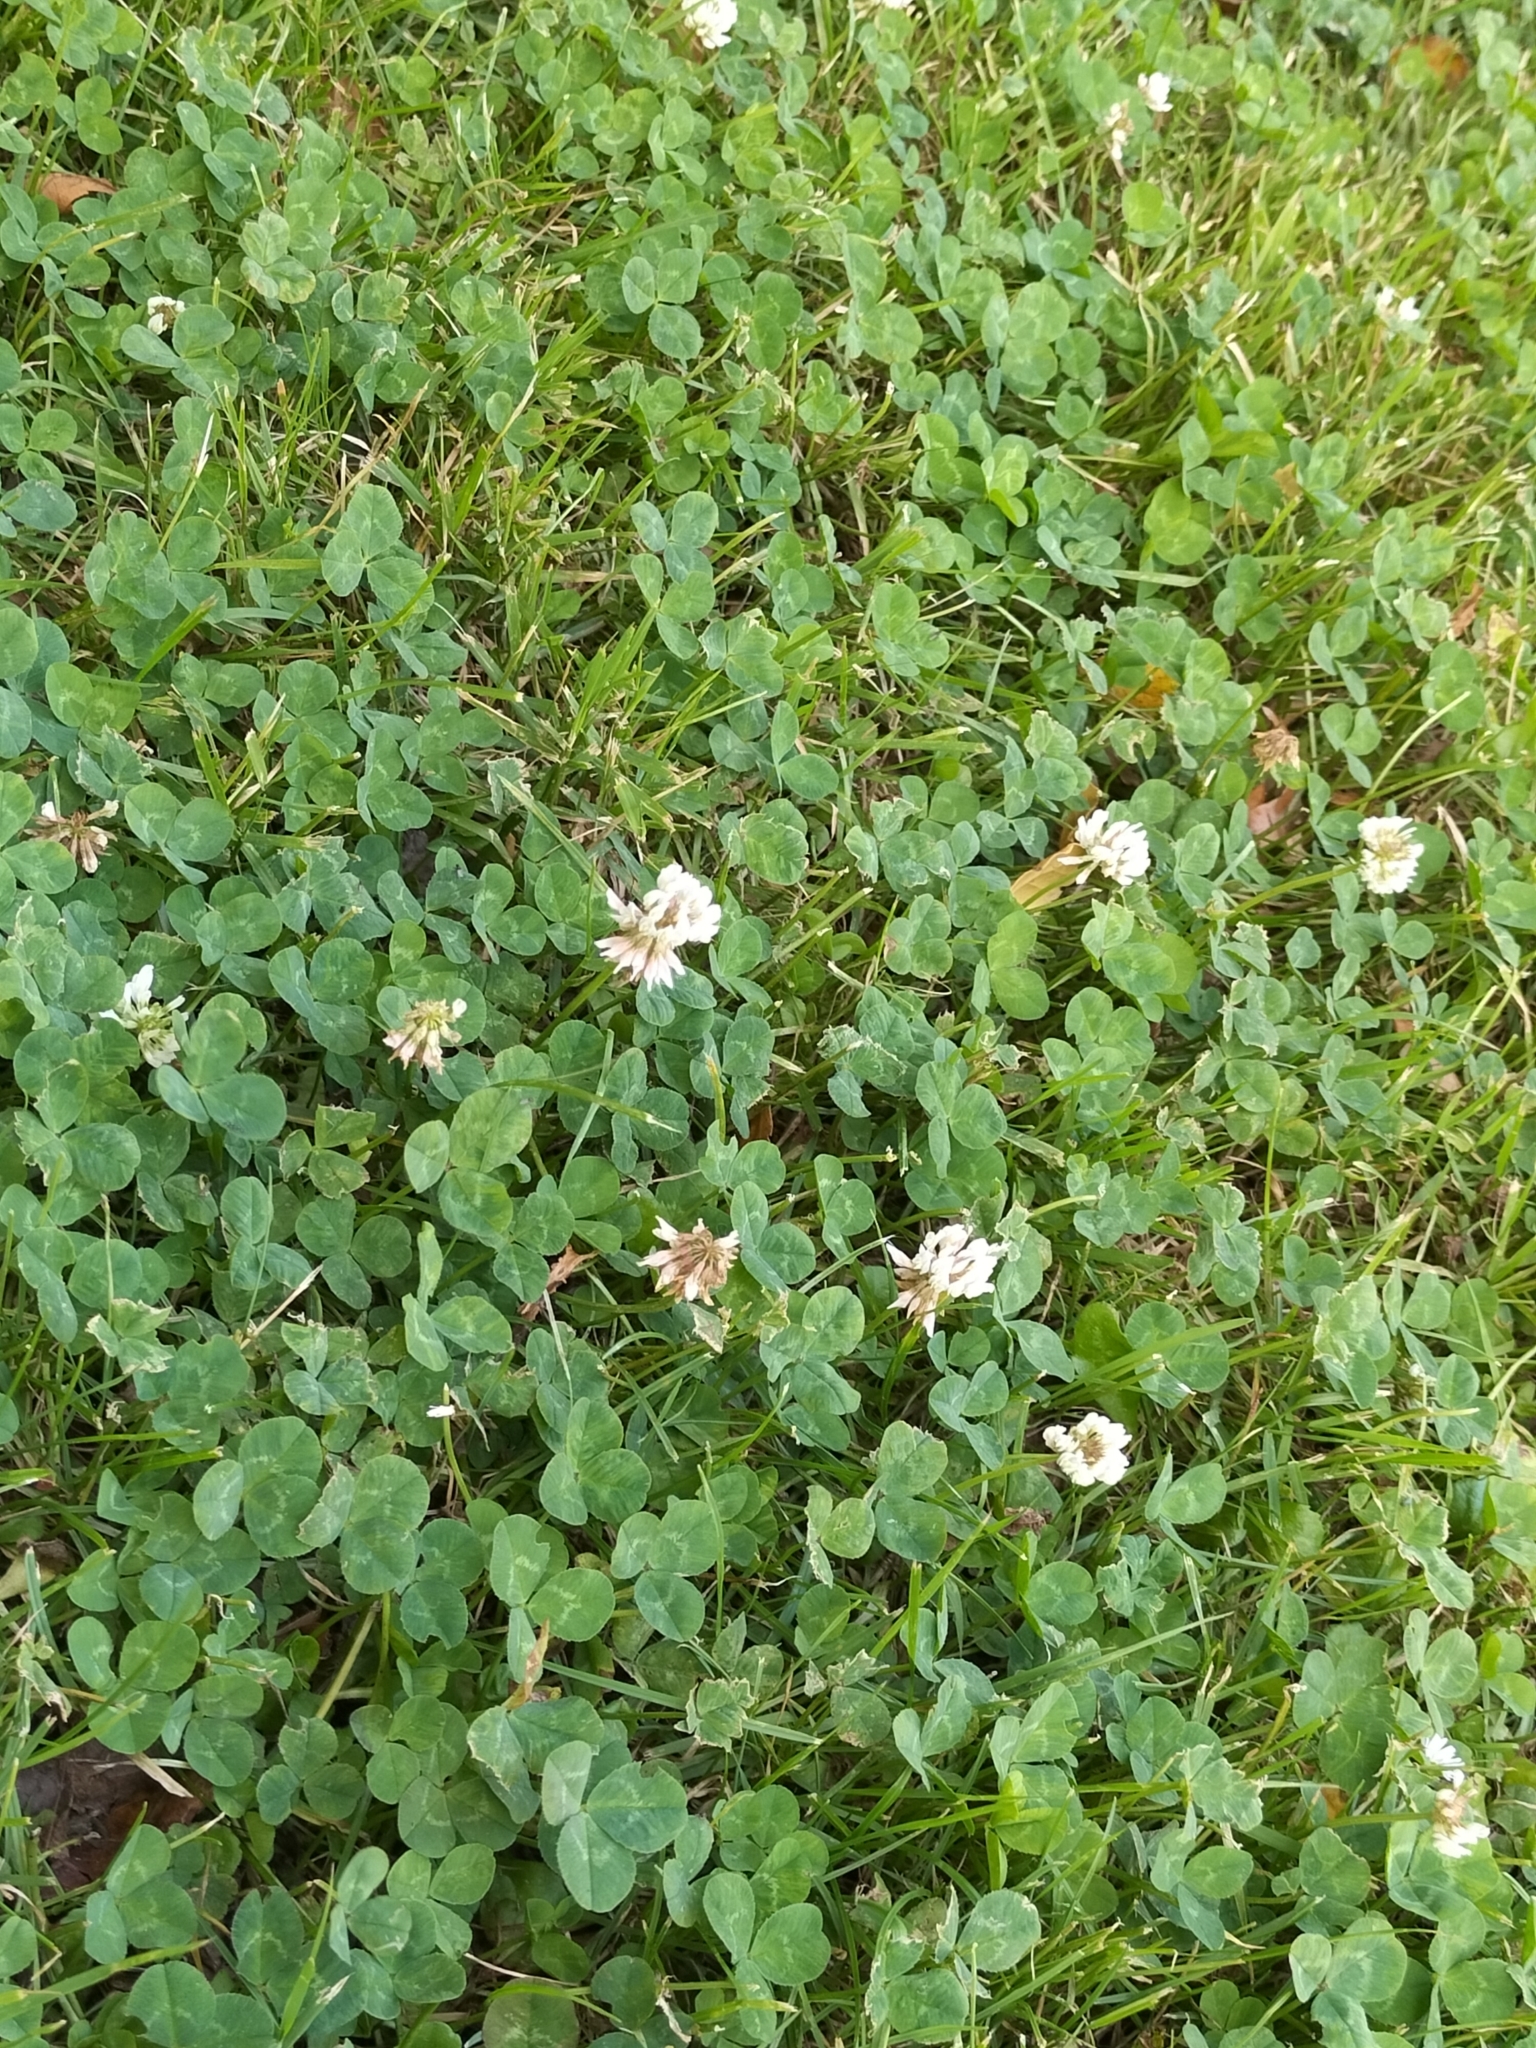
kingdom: Plantae
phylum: Tracheophyta
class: Magnoliopsida
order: Fabales
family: Fabaceae
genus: Trifolium
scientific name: Trifolium repens
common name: White clover
